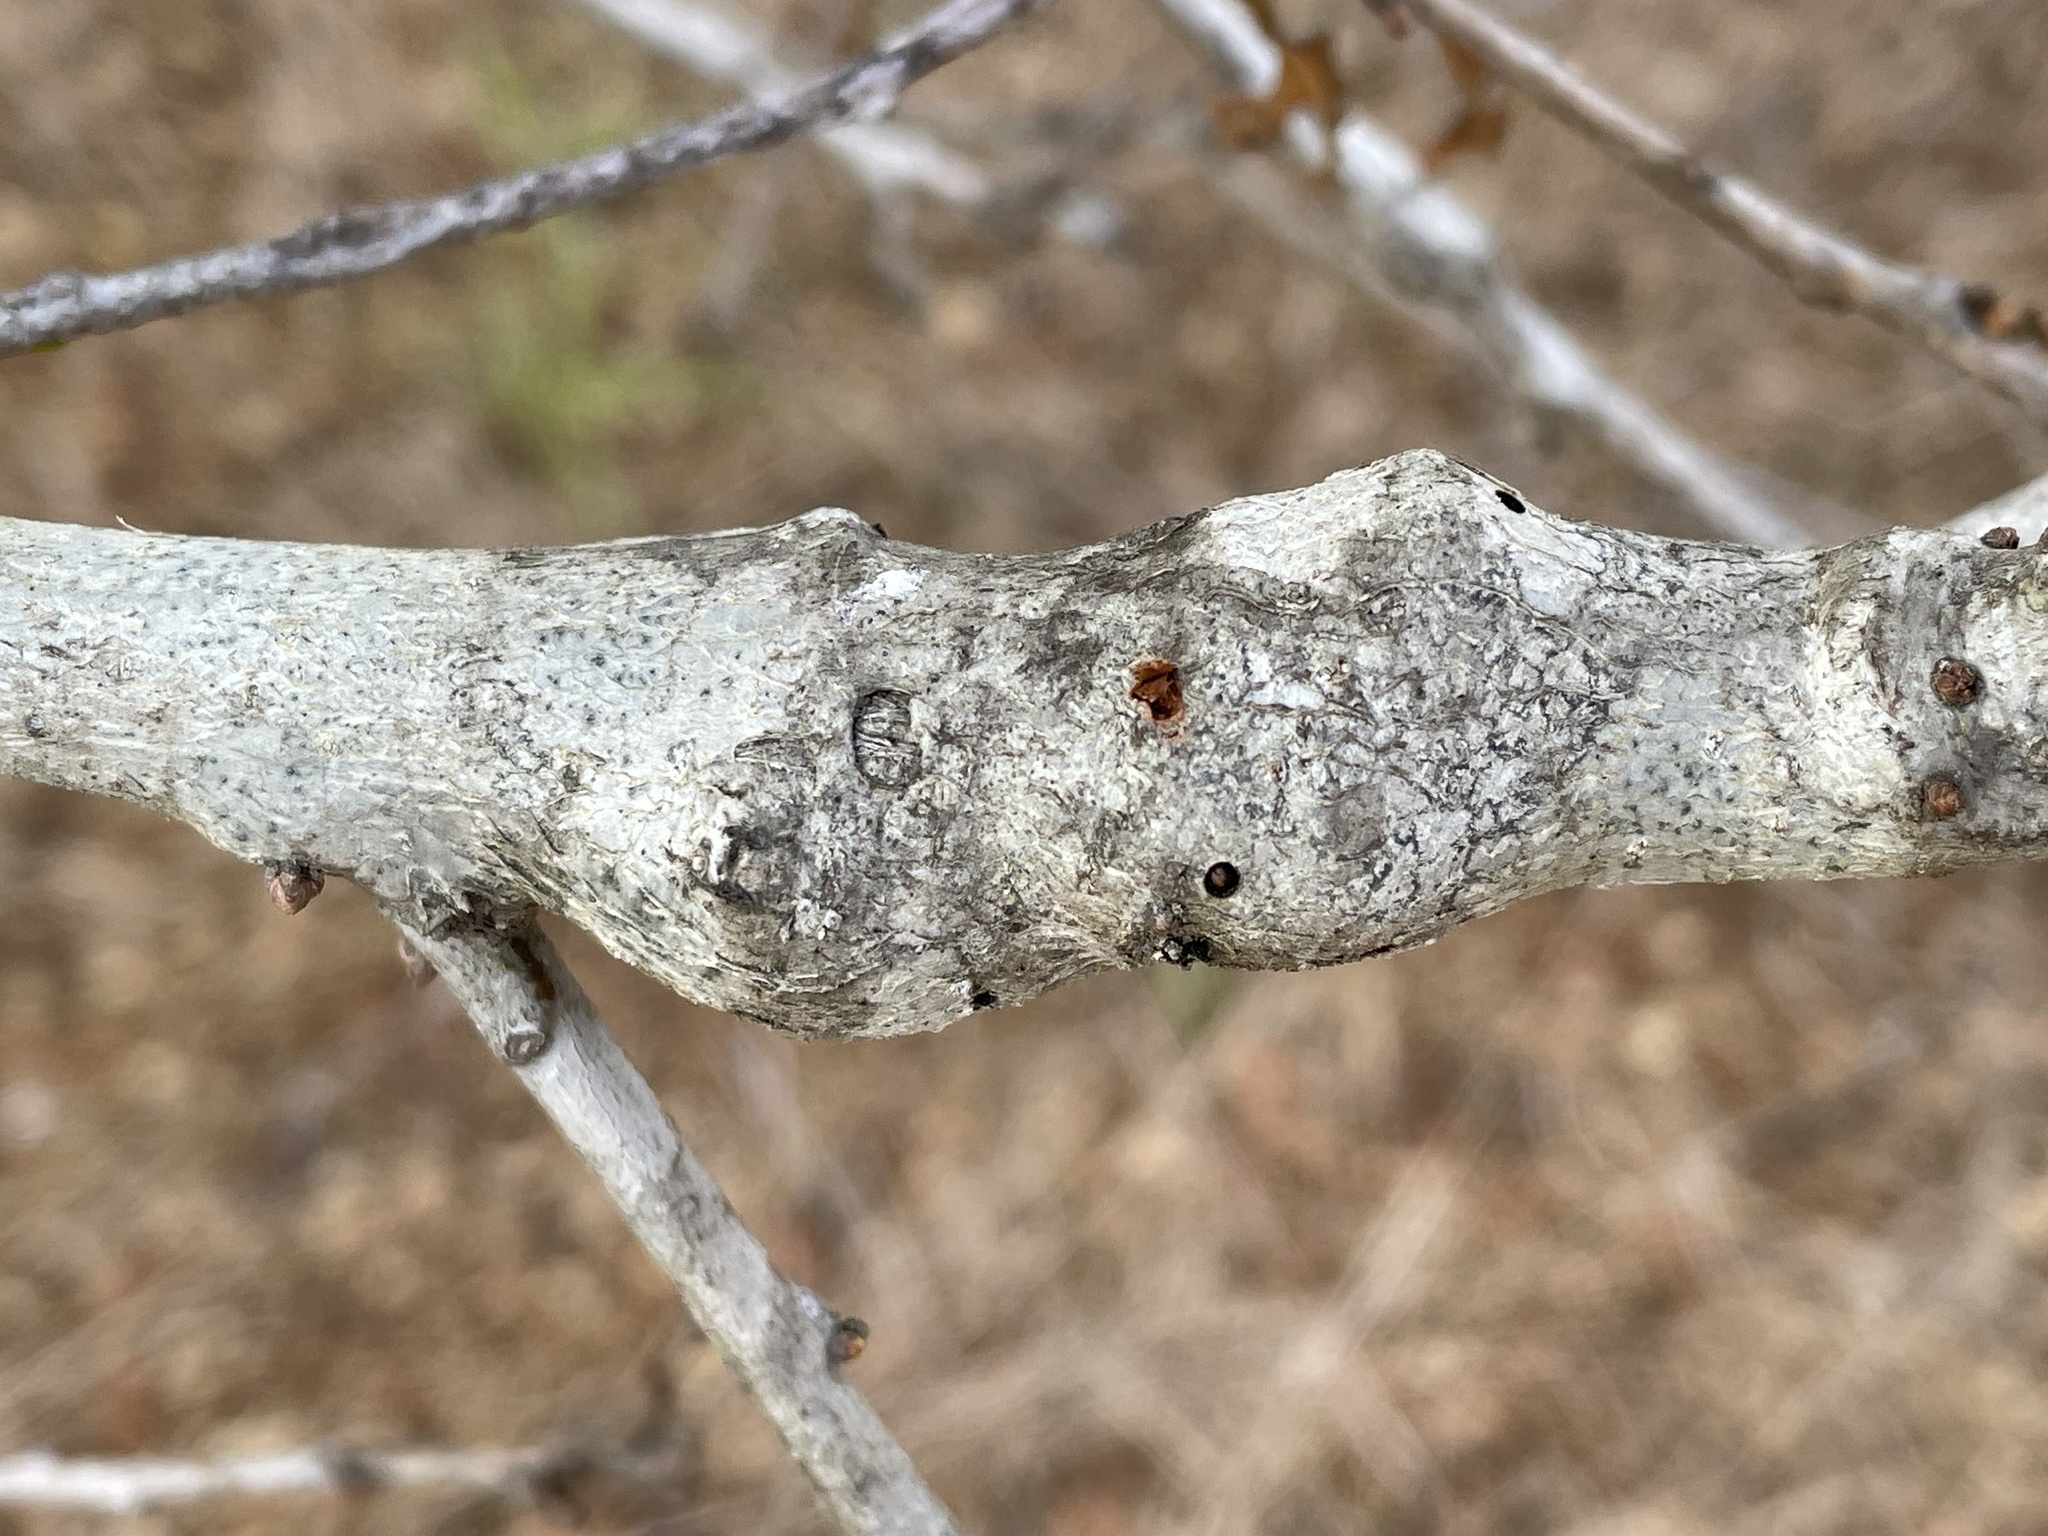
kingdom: Animalia
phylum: Arthropoda
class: Insecta
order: Hymenoptera
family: Cynipidae
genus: Callirhytis
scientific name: Callirhytis
